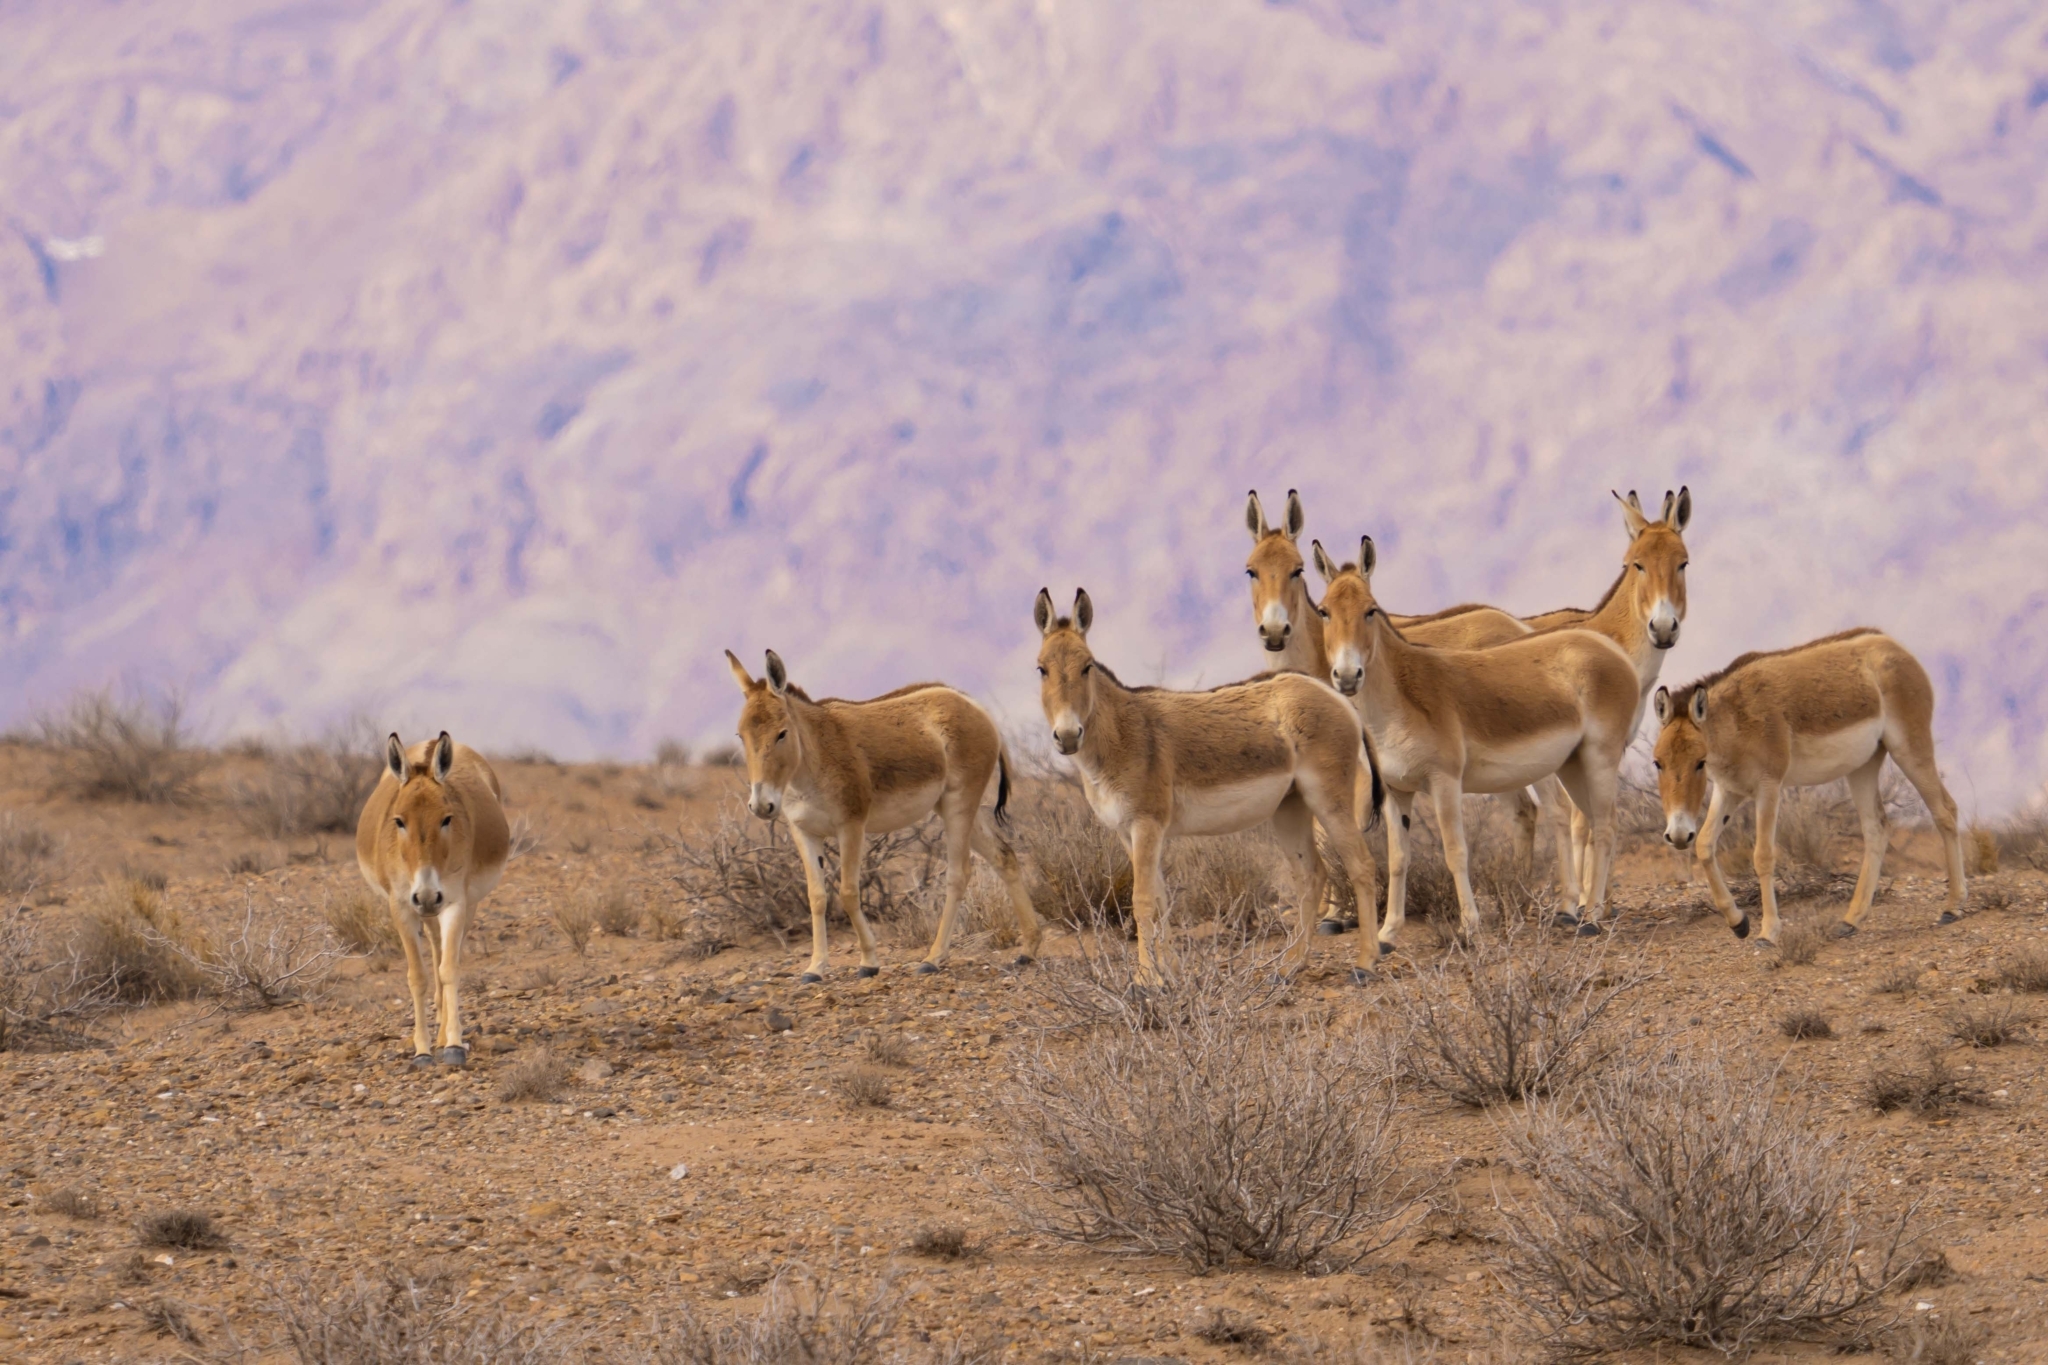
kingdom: Animalia
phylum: Chordata
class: Mammalia
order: Perissodactyla
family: Equidae
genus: Equus
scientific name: Equus hemionus
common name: Onager
